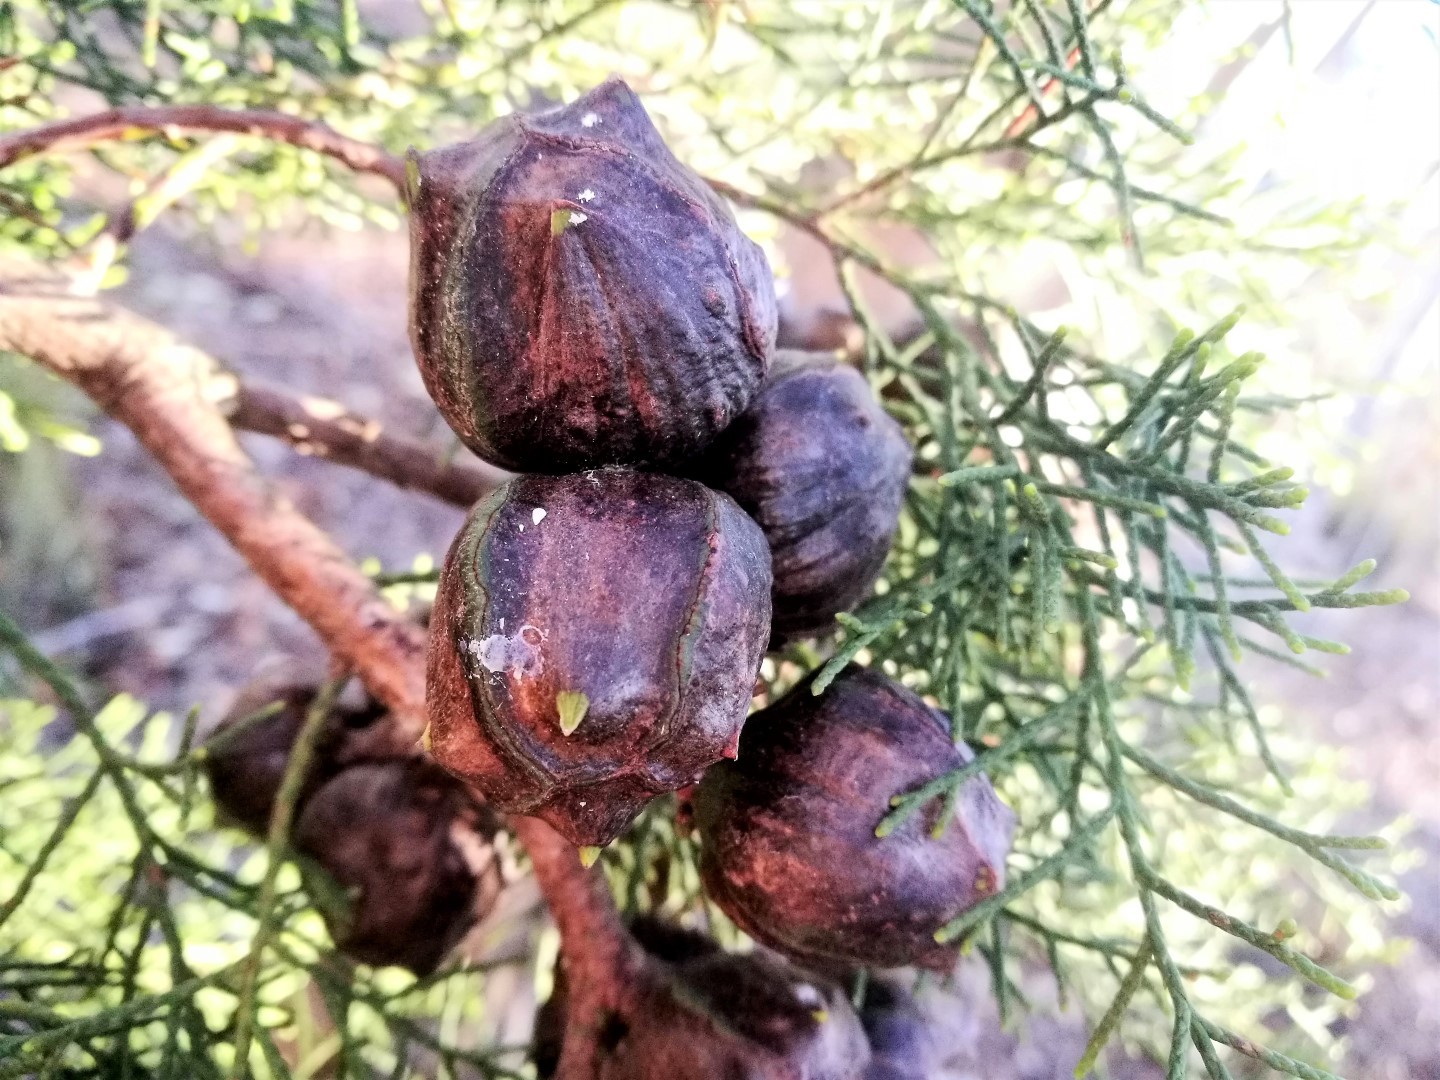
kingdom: Plantae
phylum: Tracheophyta
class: Pinopsida
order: Pinales
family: Cupressaceae
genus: Widdringtonia
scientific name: Widdringtonia nodiflora
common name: Cape cypress
